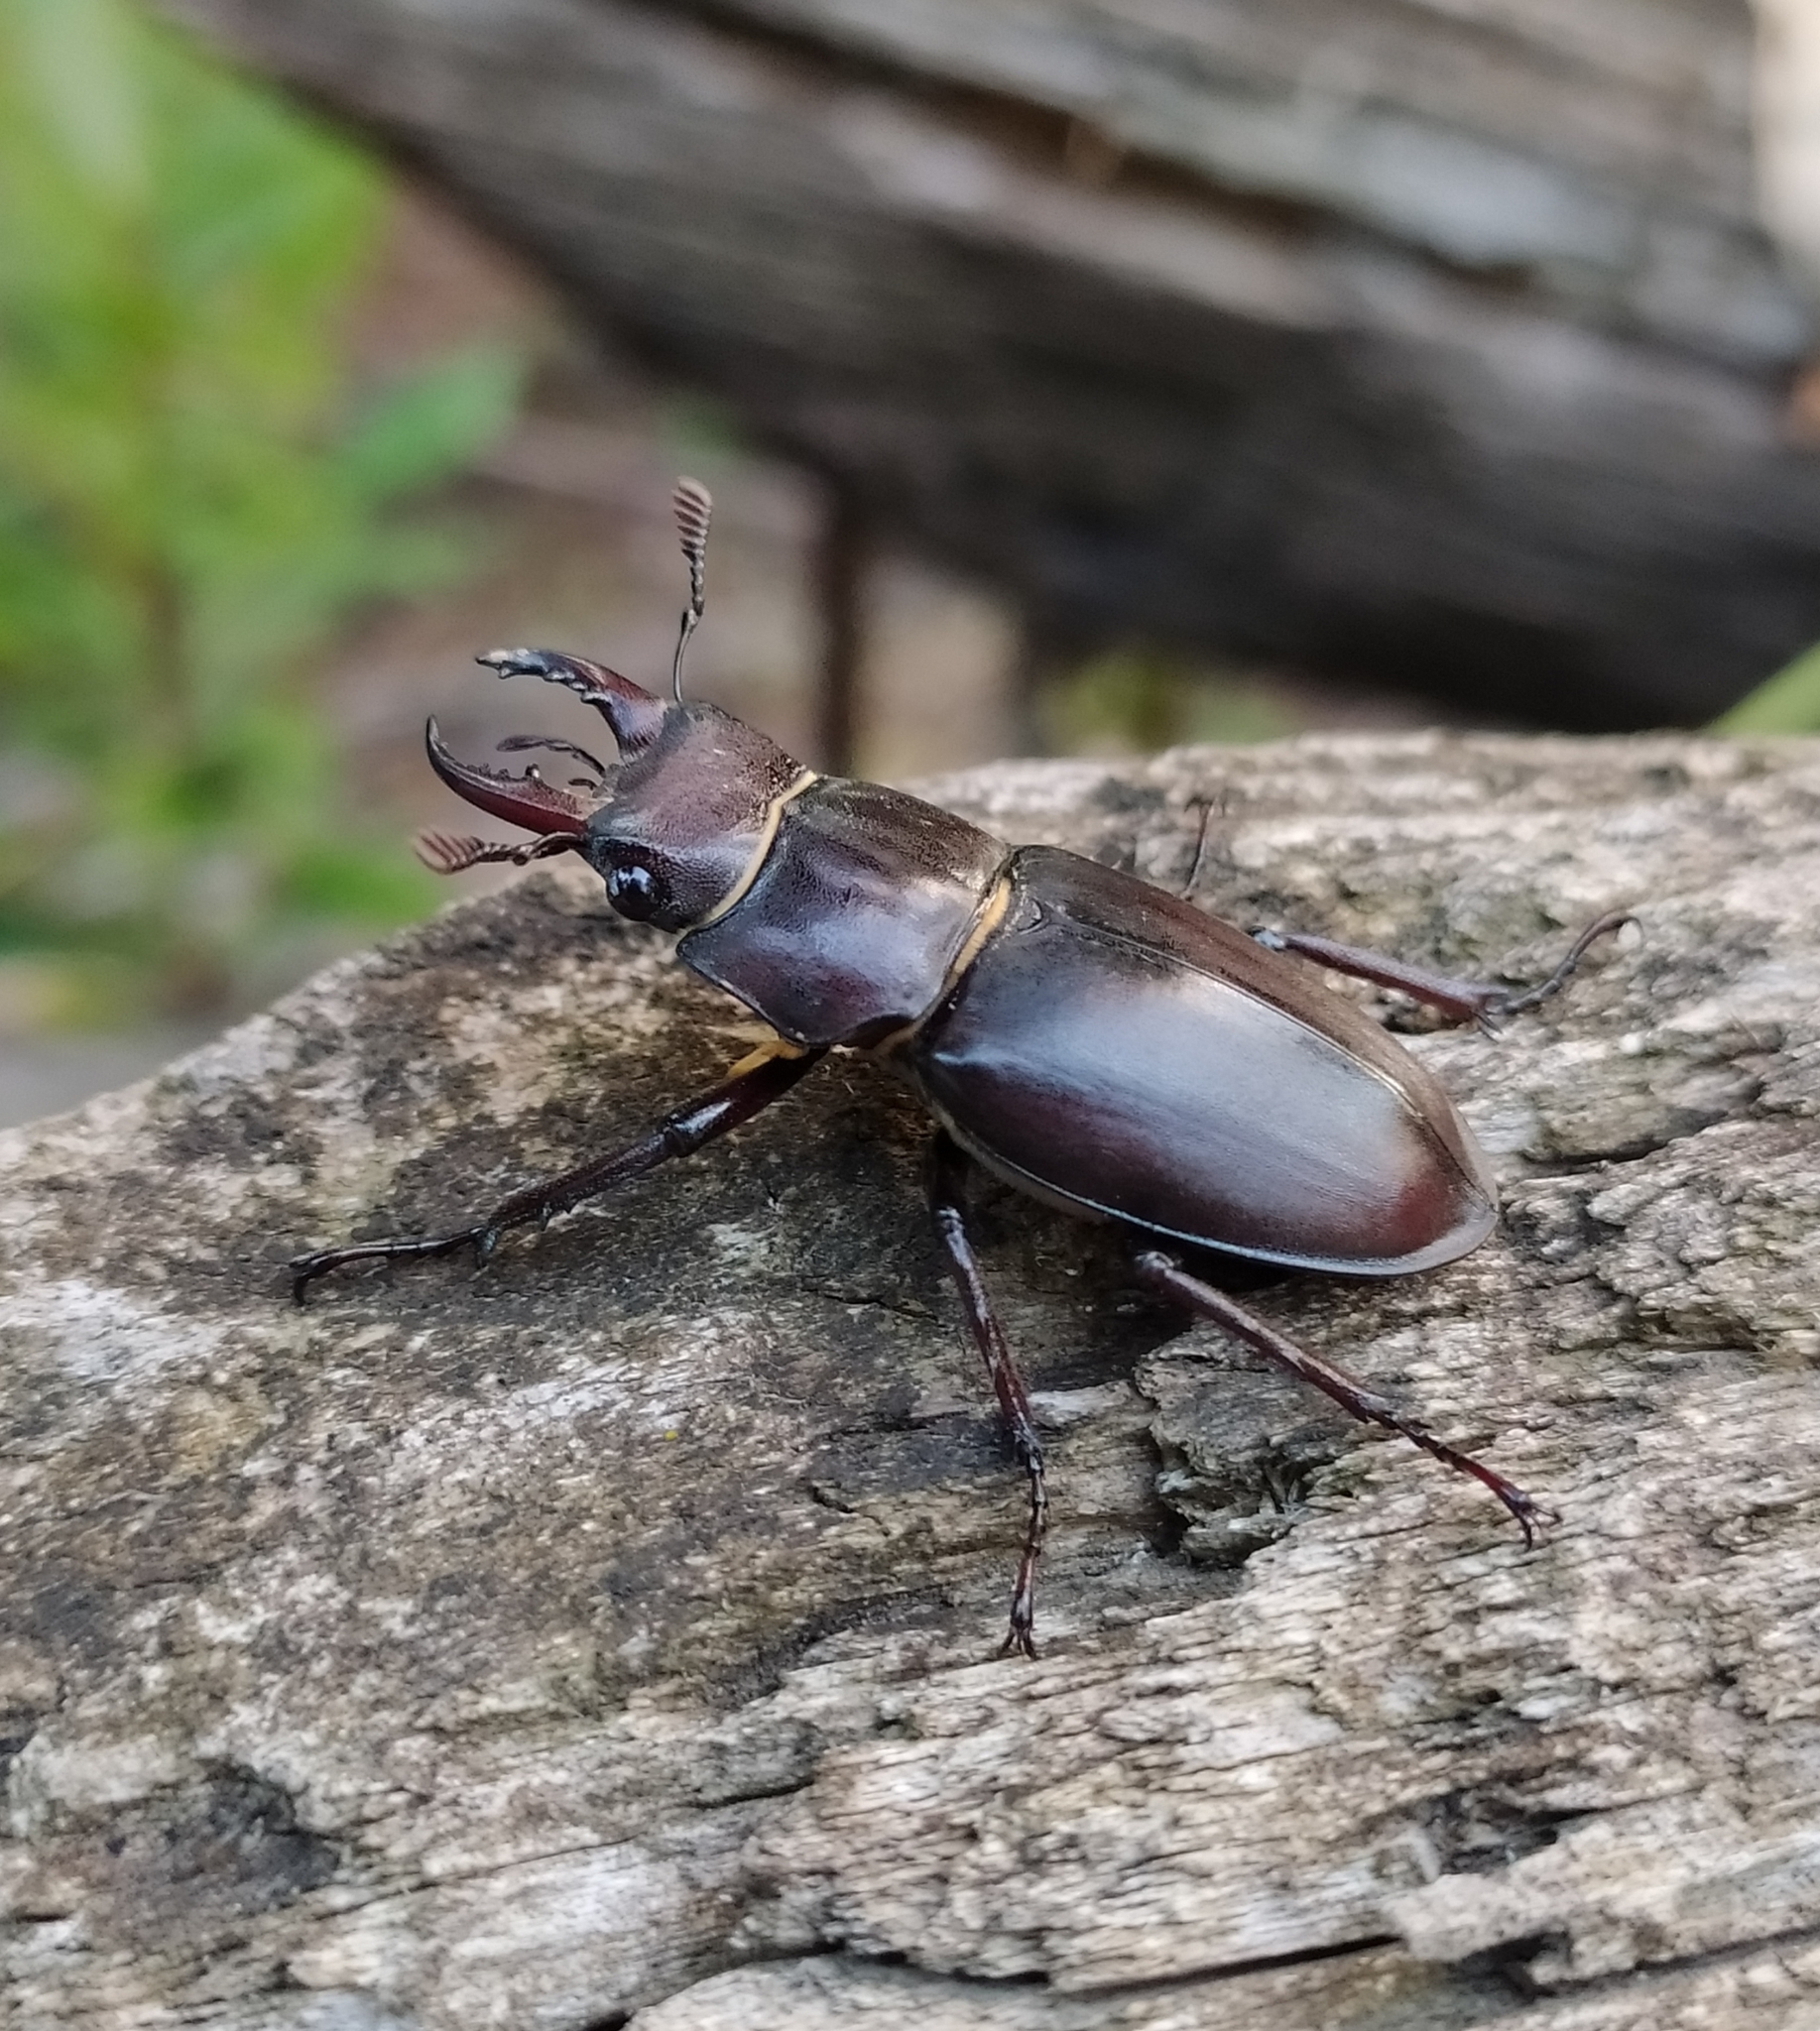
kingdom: Animalia
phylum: Arthropoda
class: Insecta
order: Coleoptera
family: Lucanidae
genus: Lucanus
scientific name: Lucanus tetraodon
